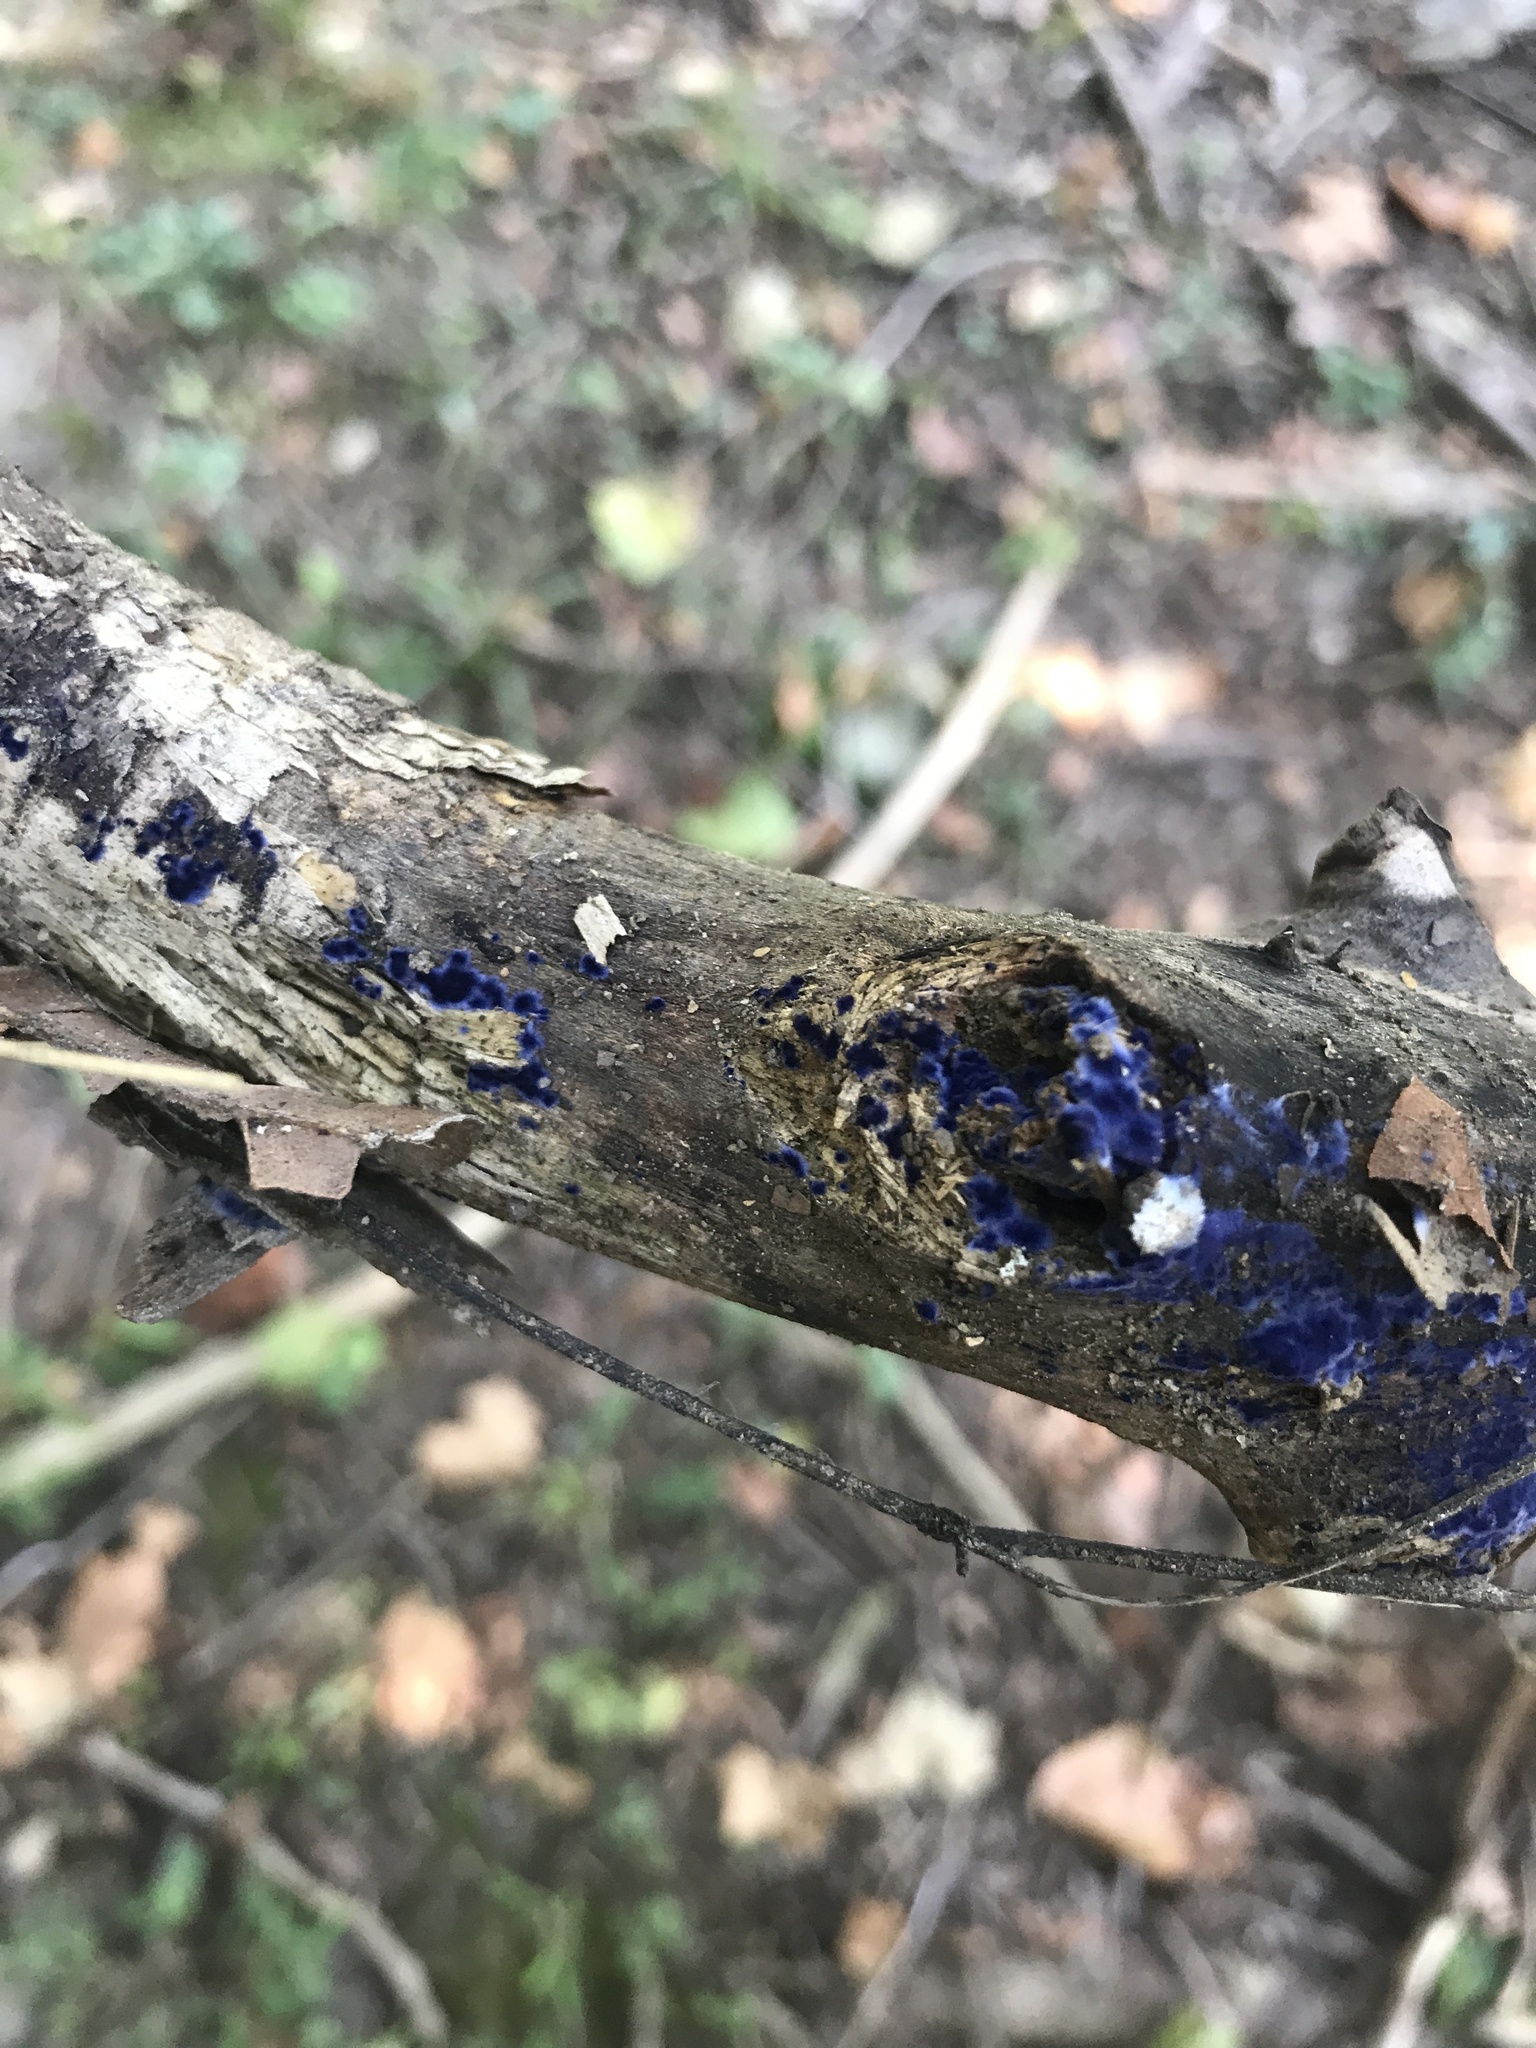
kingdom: Fungi
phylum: Basidiomycota
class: Agaricomycetes
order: Polyporales
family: Phanerochaetaceae
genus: Terana
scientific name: Terana coerulea
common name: Cobalt crust
